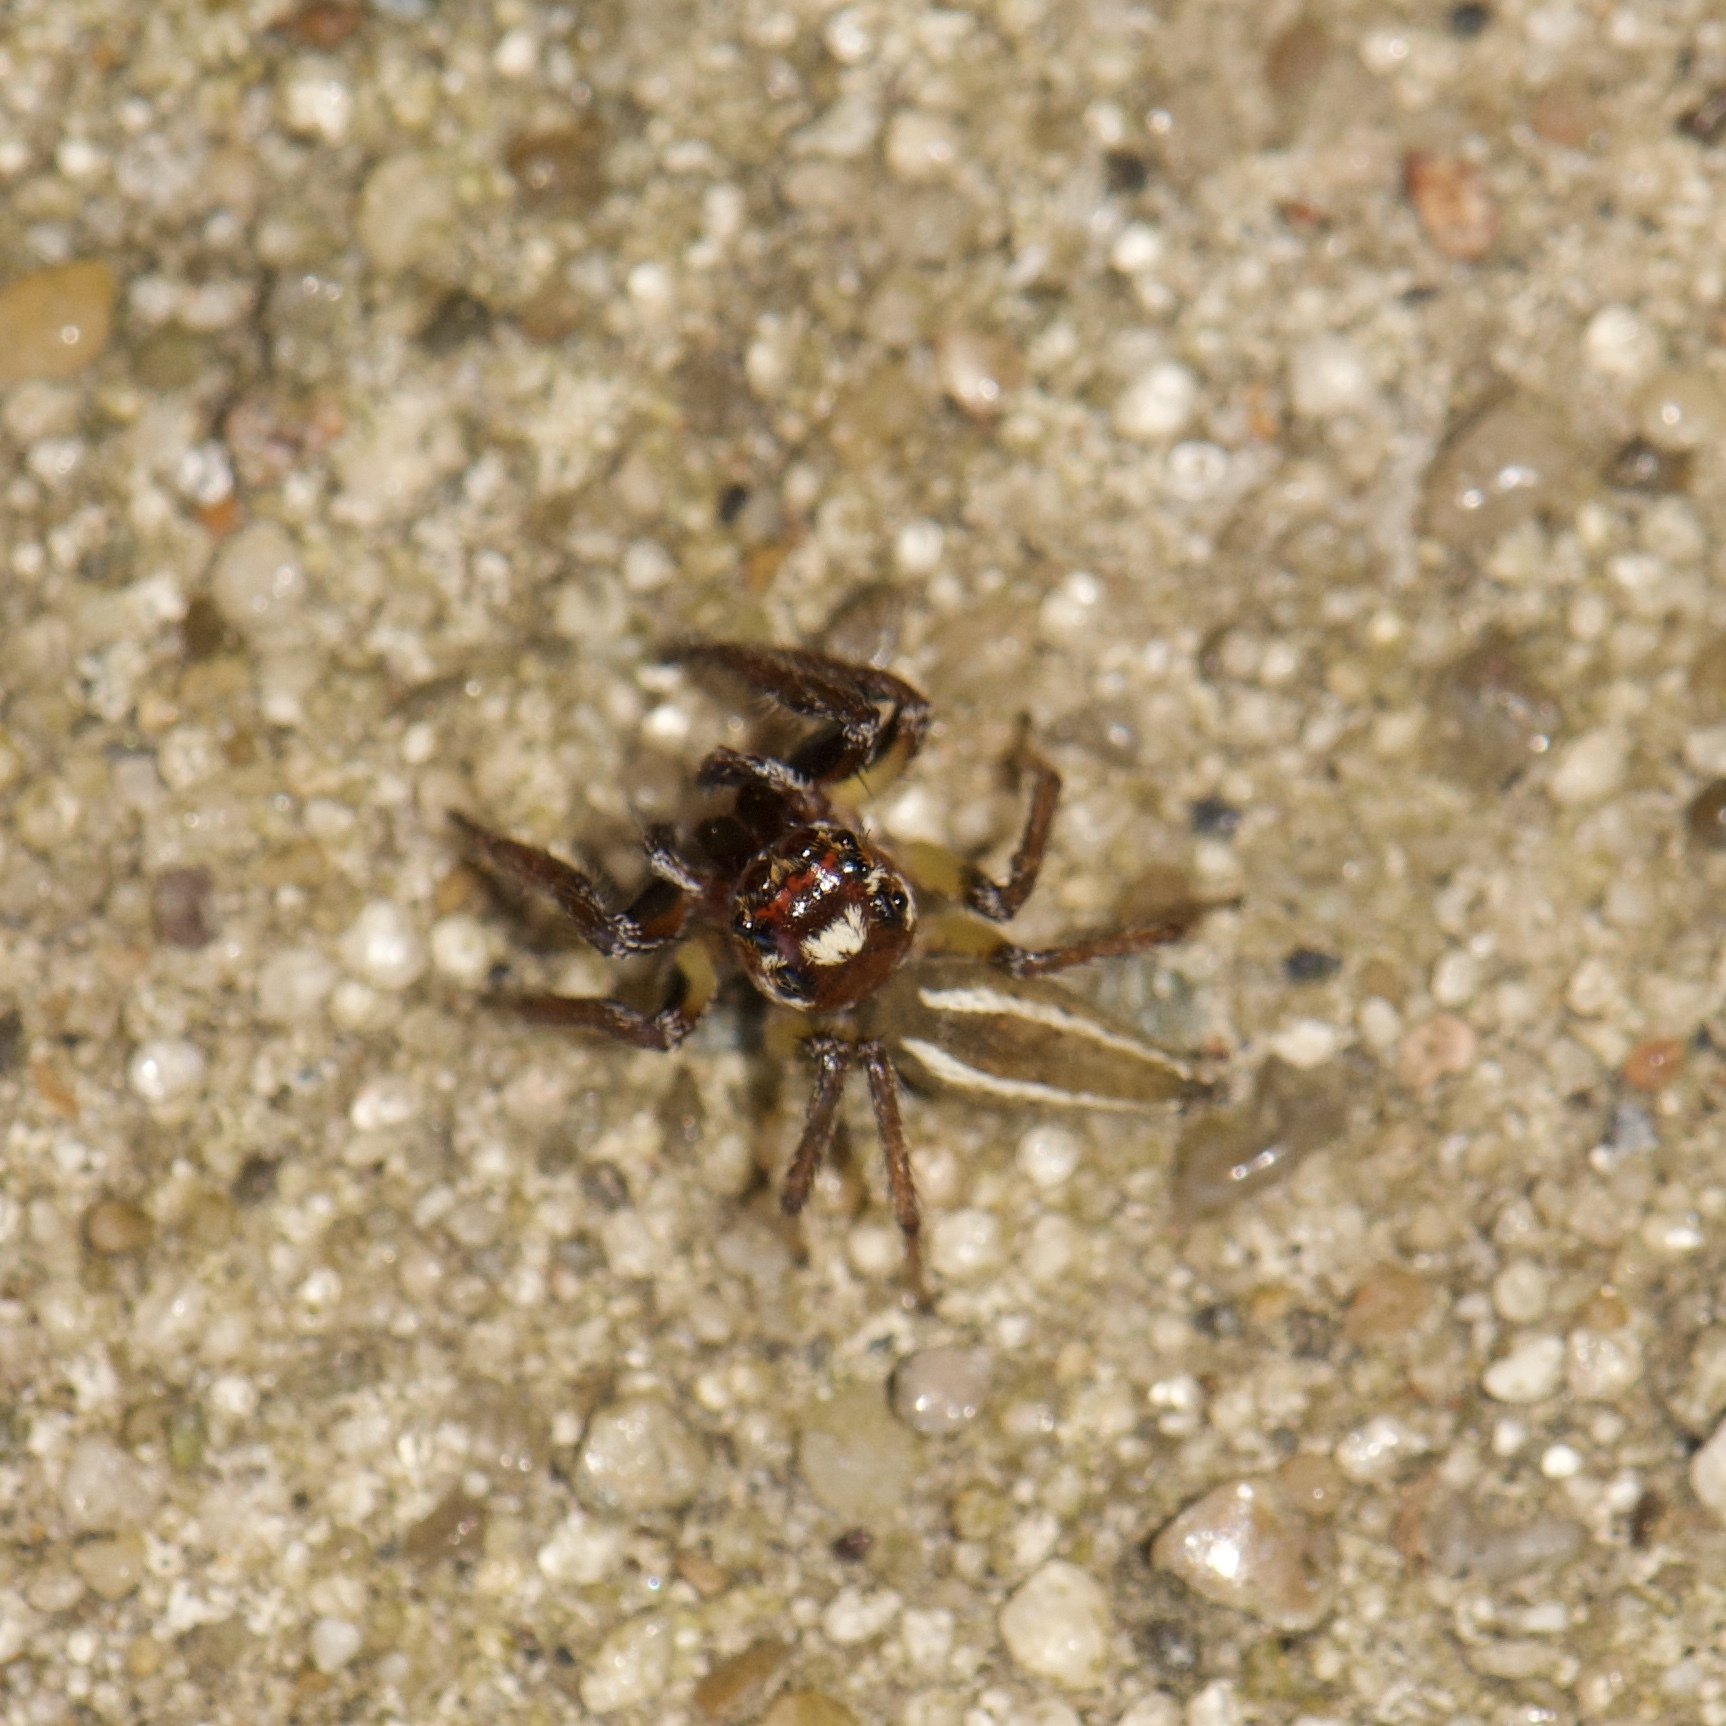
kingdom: Animalia
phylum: Arthropoda
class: Arachnida
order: Araneae
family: Salticidae
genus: Colonus
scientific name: Colonus sylvanus
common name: Jumping spiders
